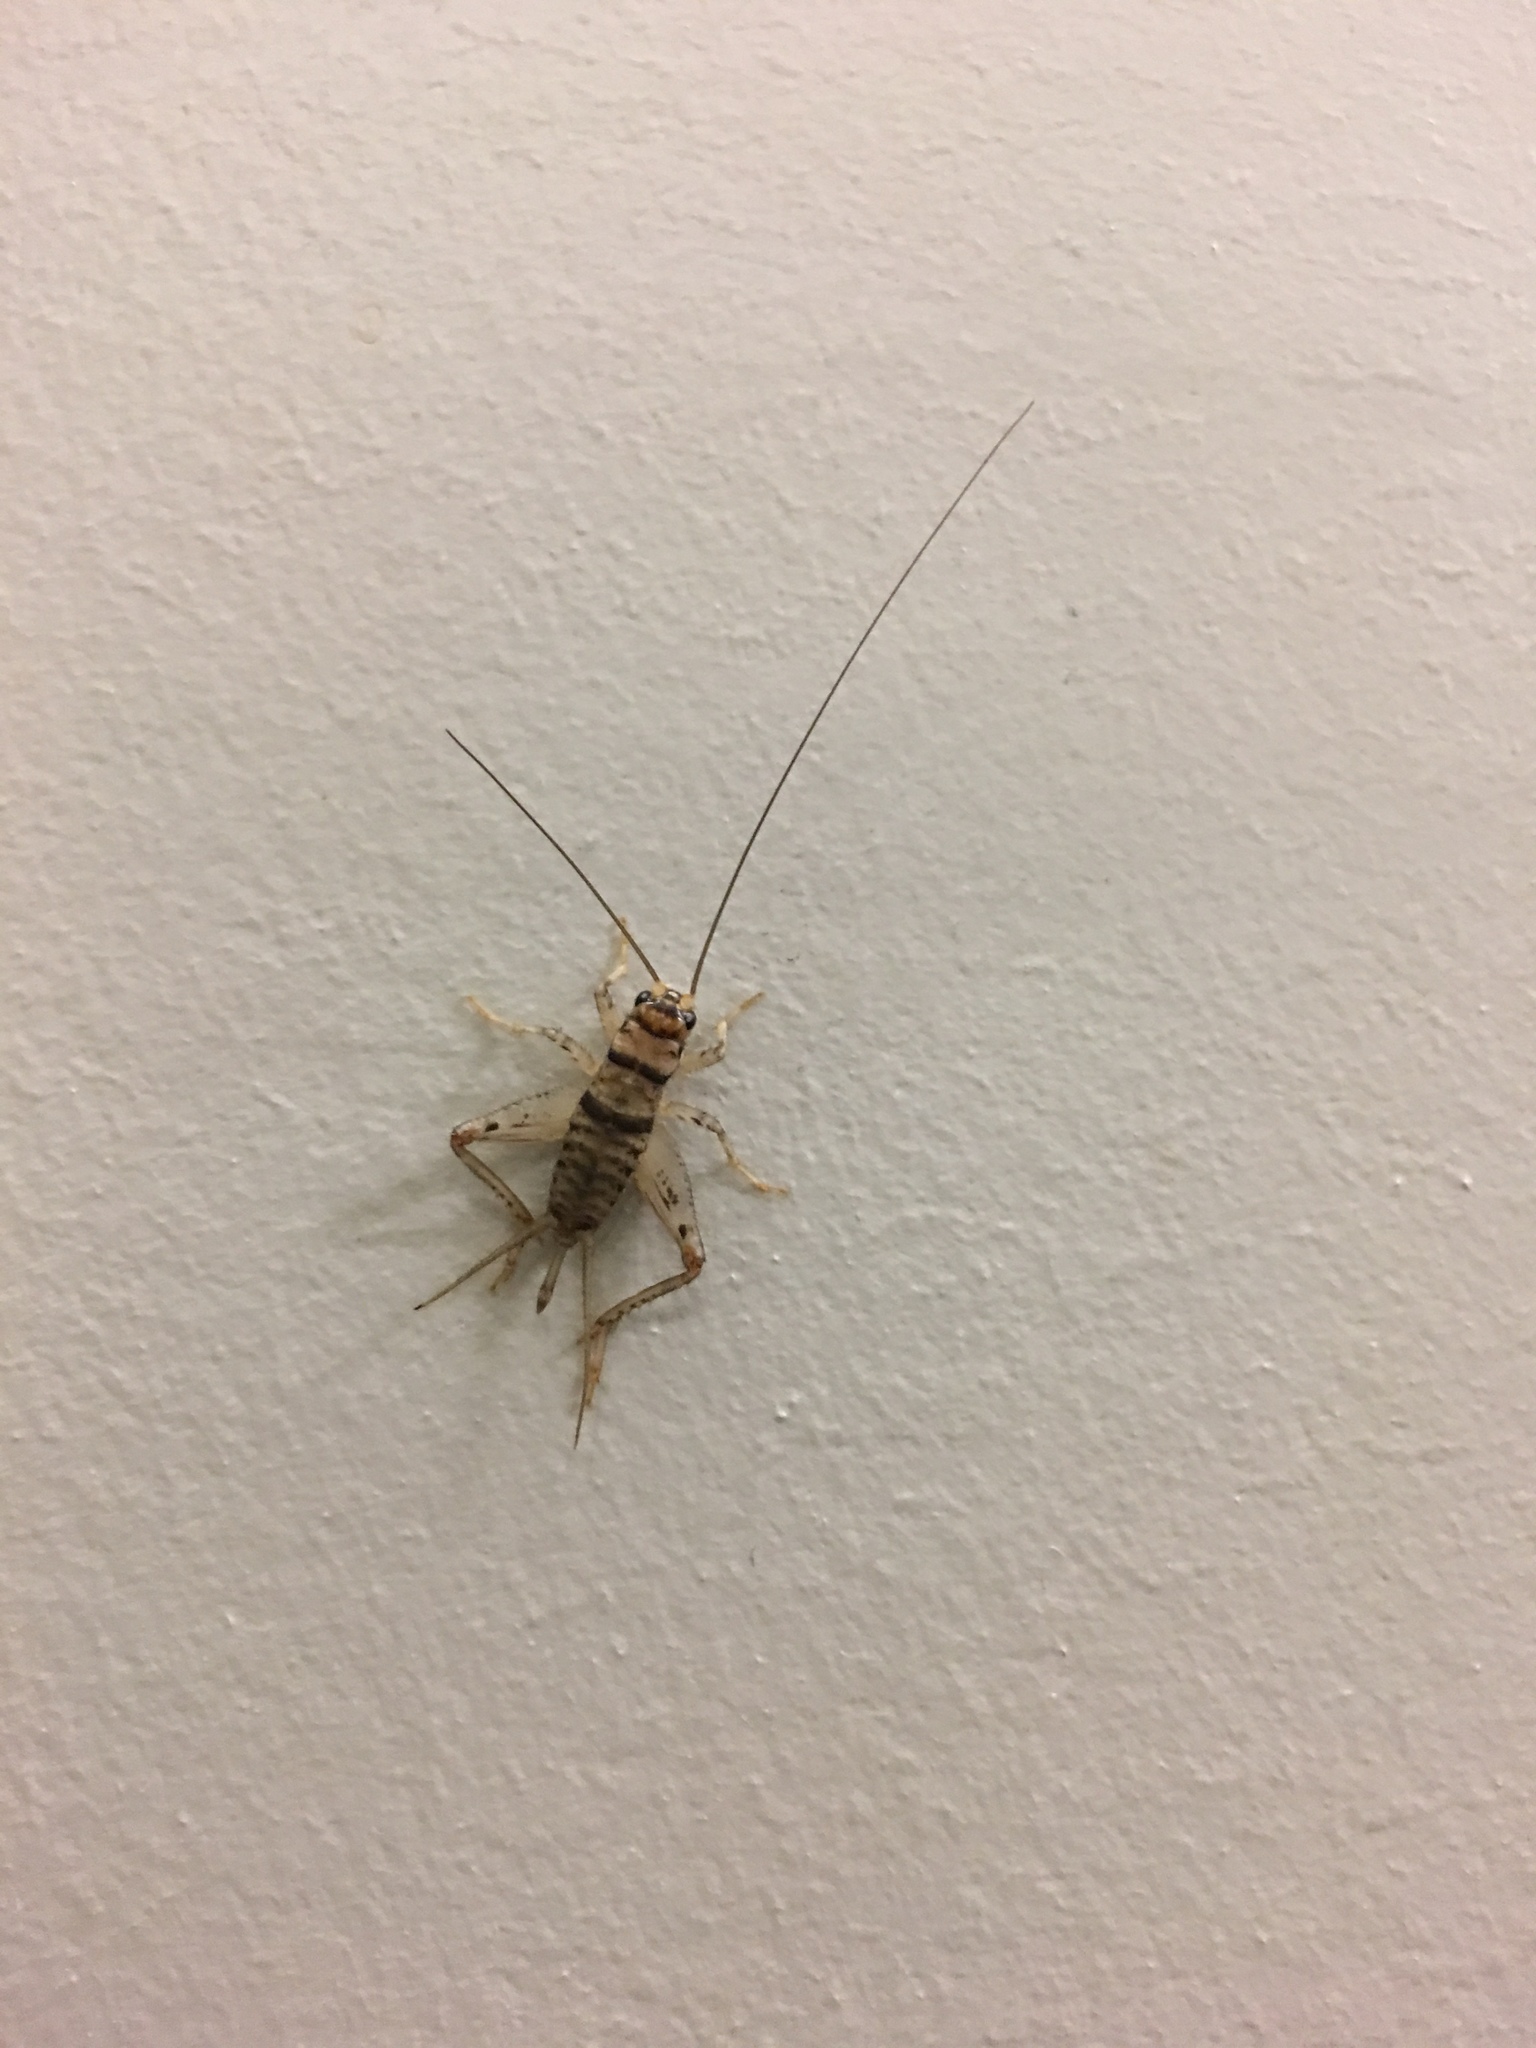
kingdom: Animalia
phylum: Arthropoda
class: Insecta
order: Orthoptera
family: Gryllidae
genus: Gryllodes
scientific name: Gryllodes sigillatus
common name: Tropical house cricket
